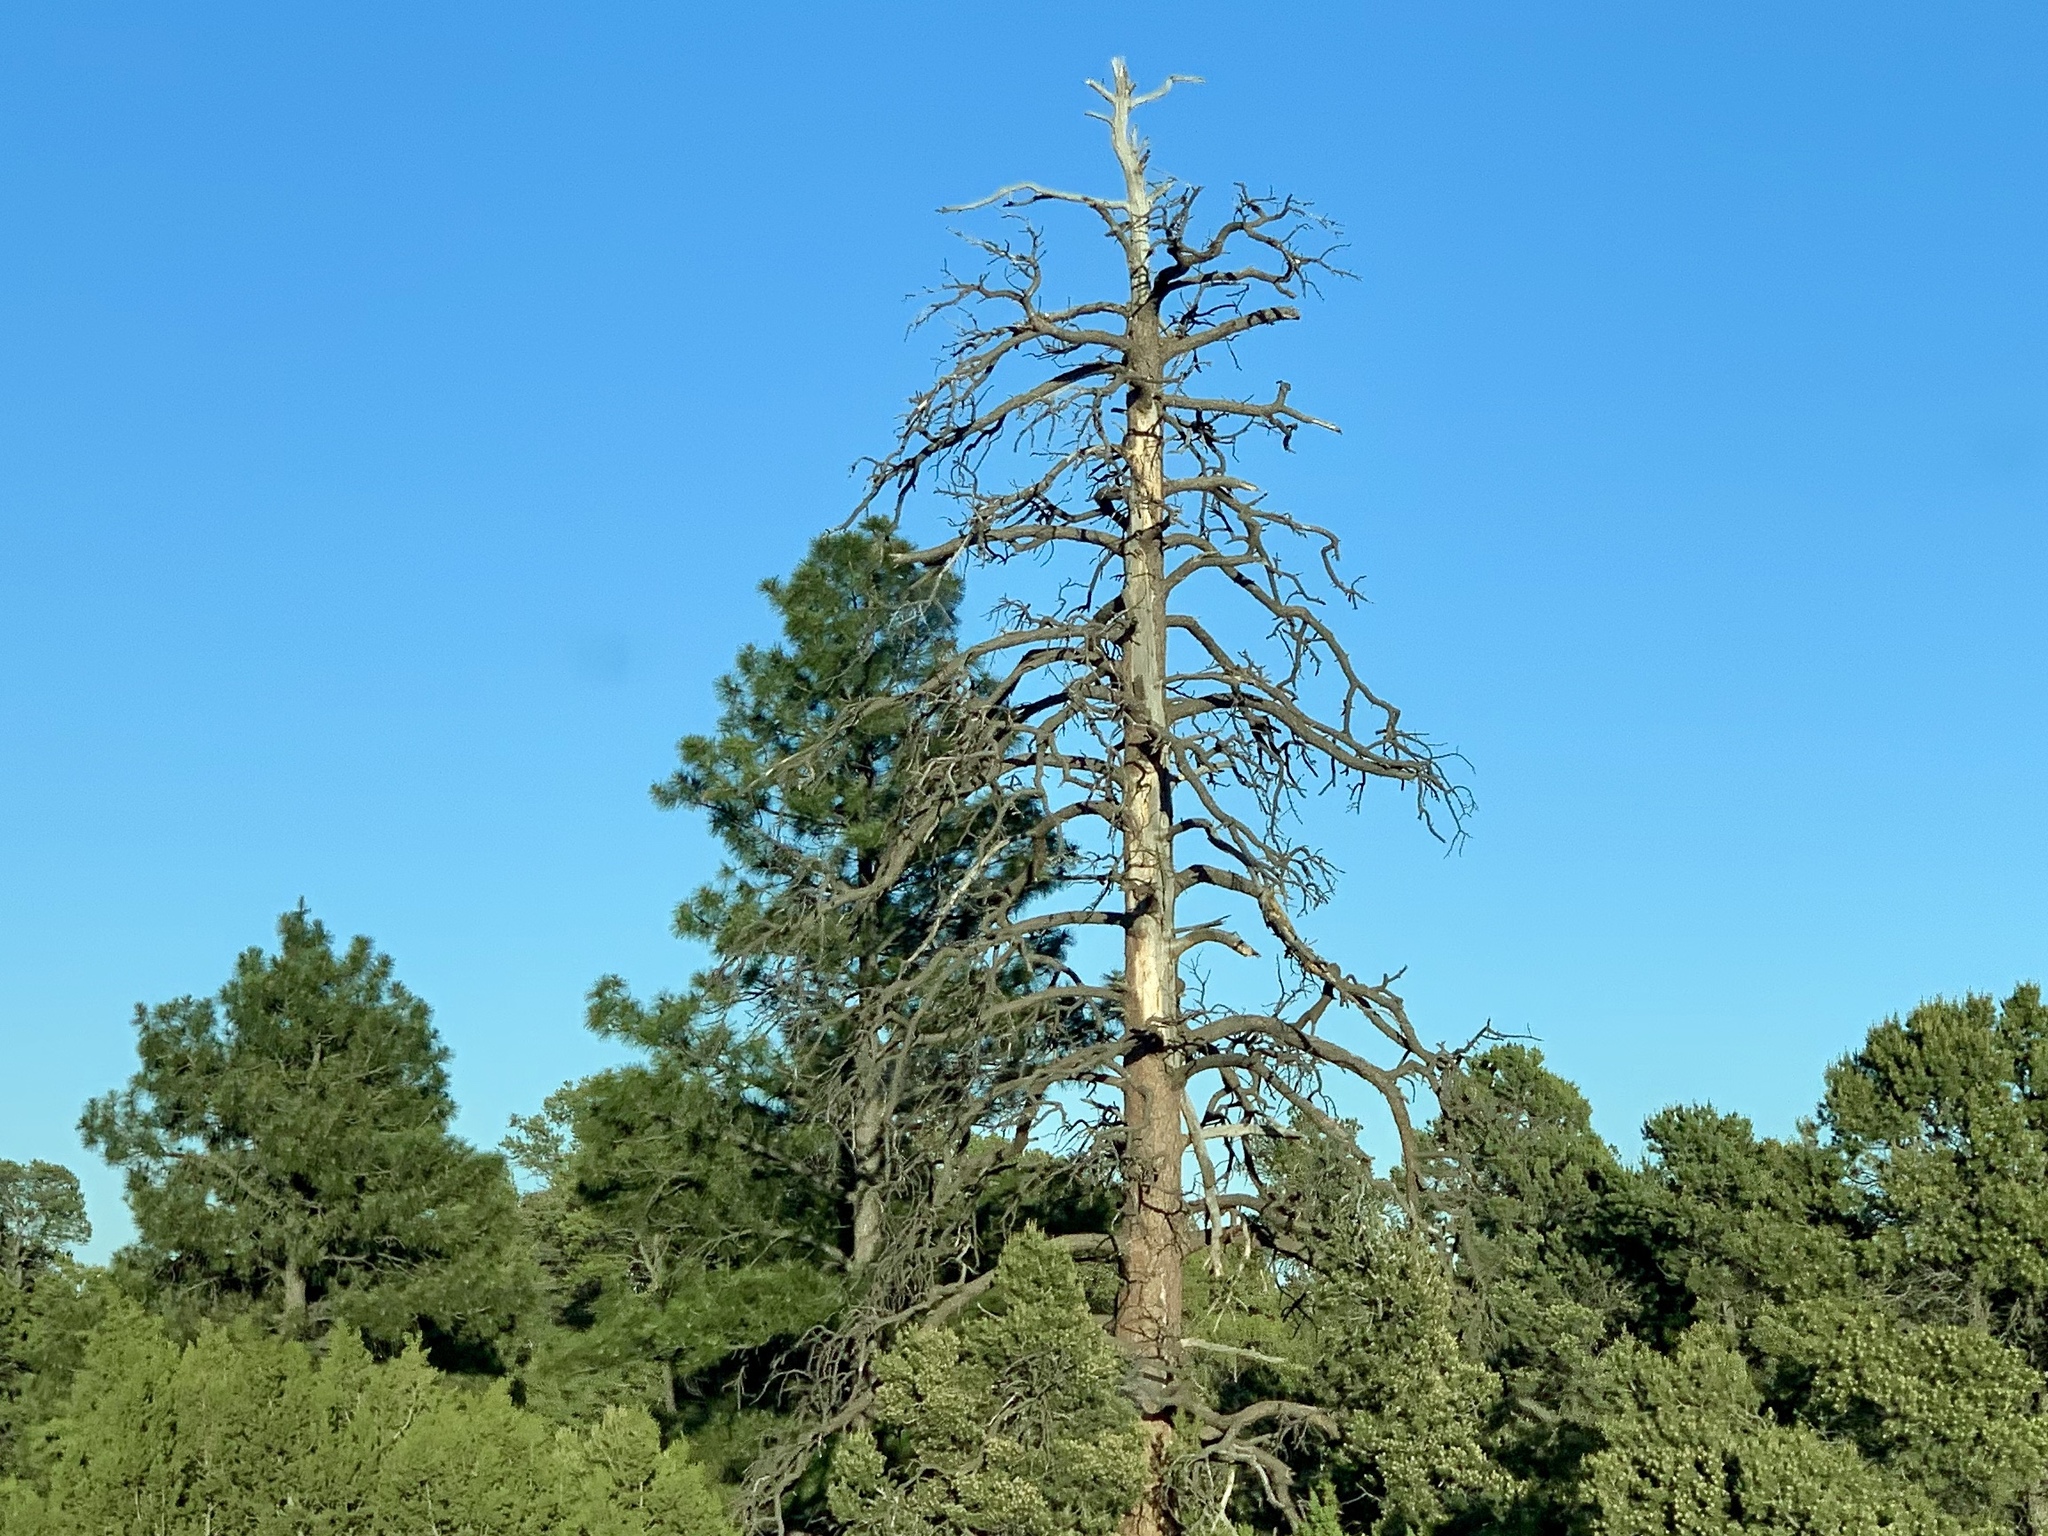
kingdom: Plantae
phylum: Tracheophyta
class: Pinopsida
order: Pinales
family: Pinaceae
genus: Pinus
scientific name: Pinus ponderosa
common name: Western yellow-pine
